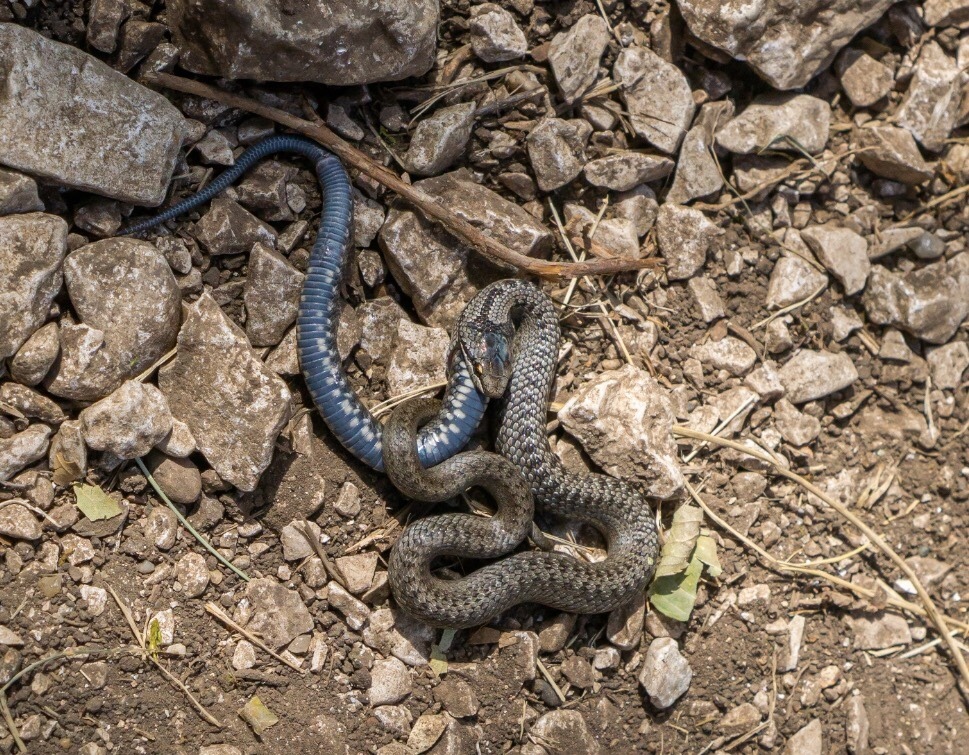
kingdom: Animalia
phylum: Chordata
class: Squamata
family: Colubridae
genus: Coronella
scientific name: Coronella austriaca
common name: Smooth snake
